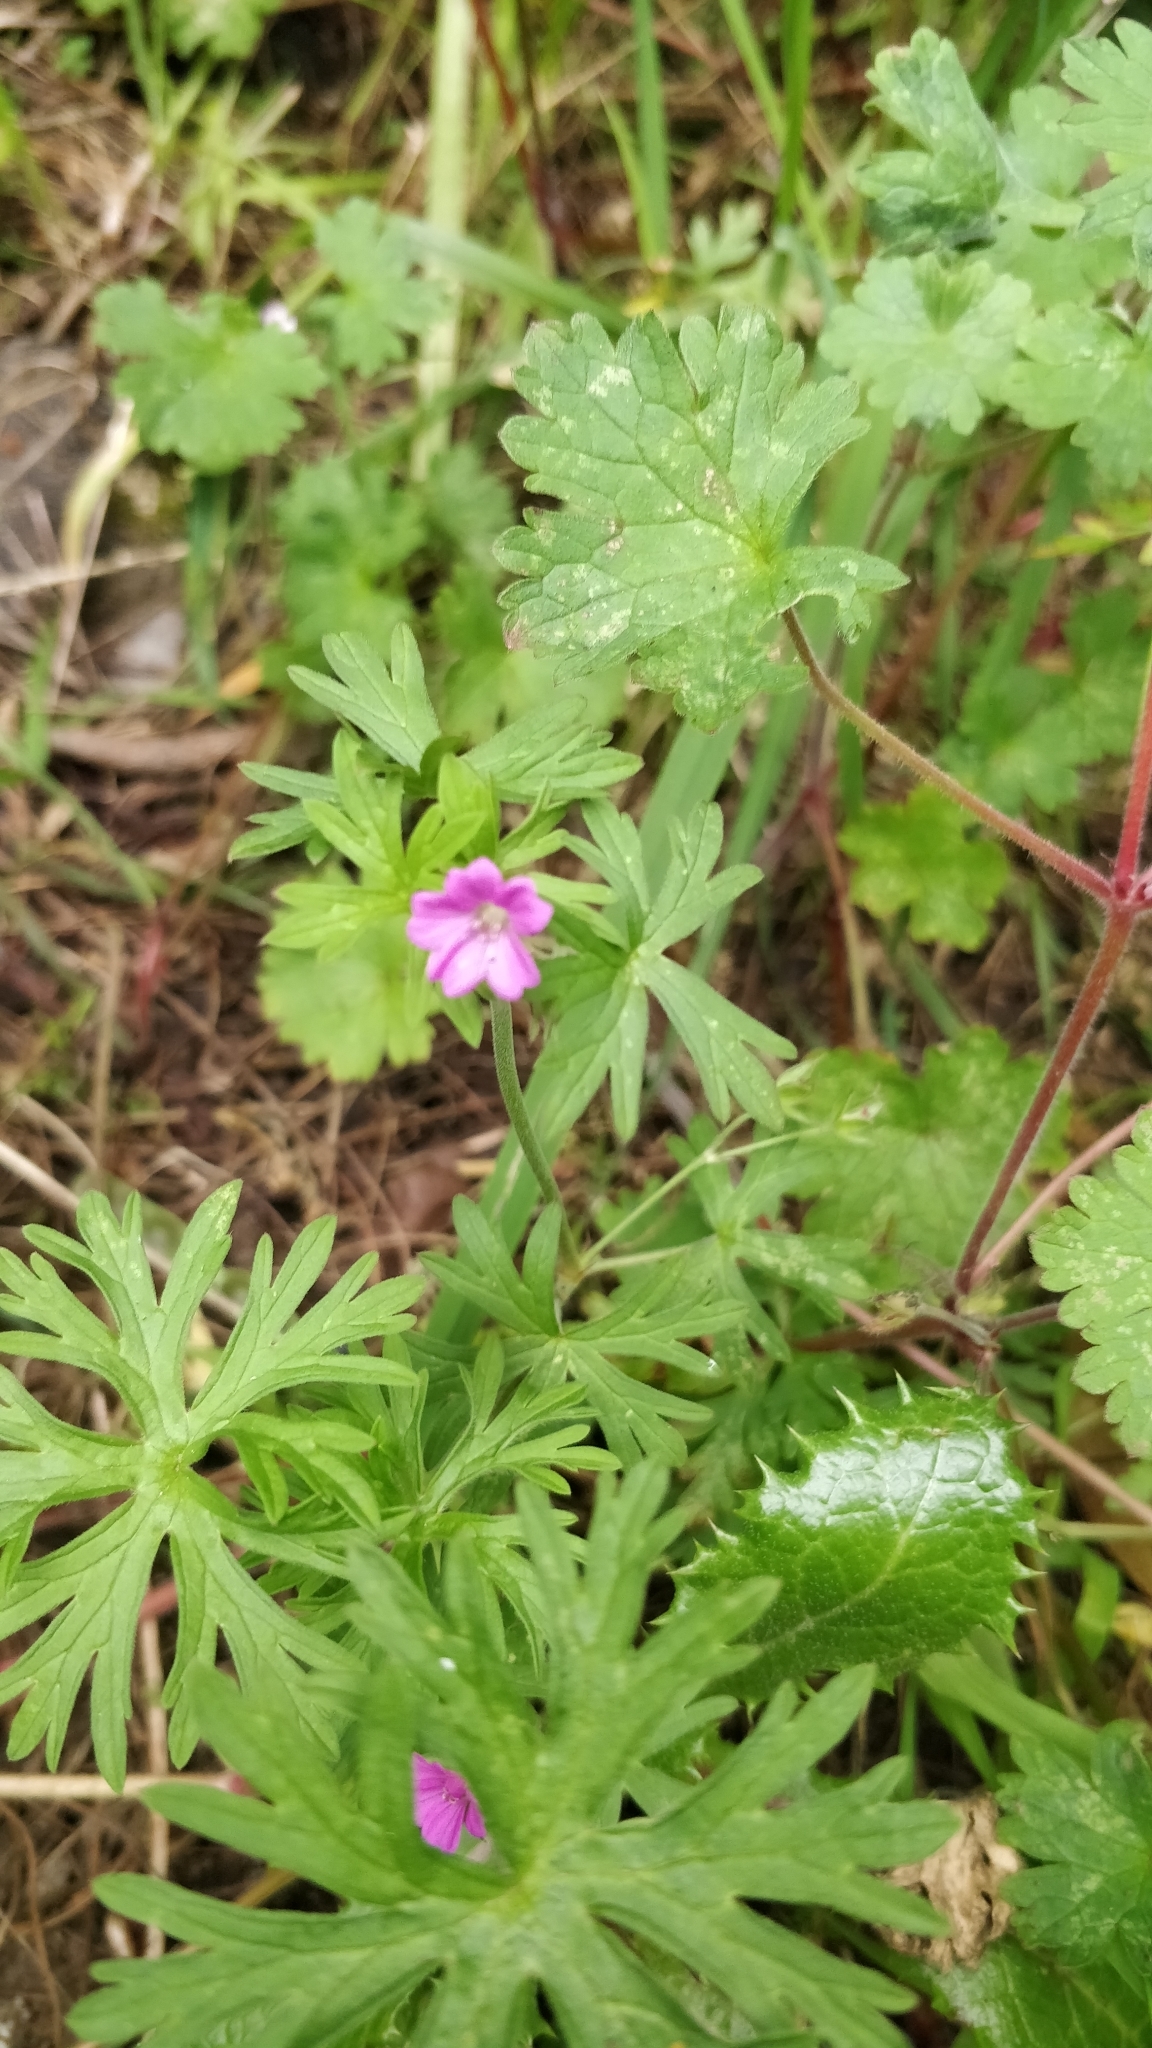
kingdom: Plantae
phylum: Tracheophyta
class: Magnoliopsida
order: Geraniales
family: Geraniaceae
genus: Geranium
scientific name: Geranium dissectum
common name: Cut-leaved crane's-bill
